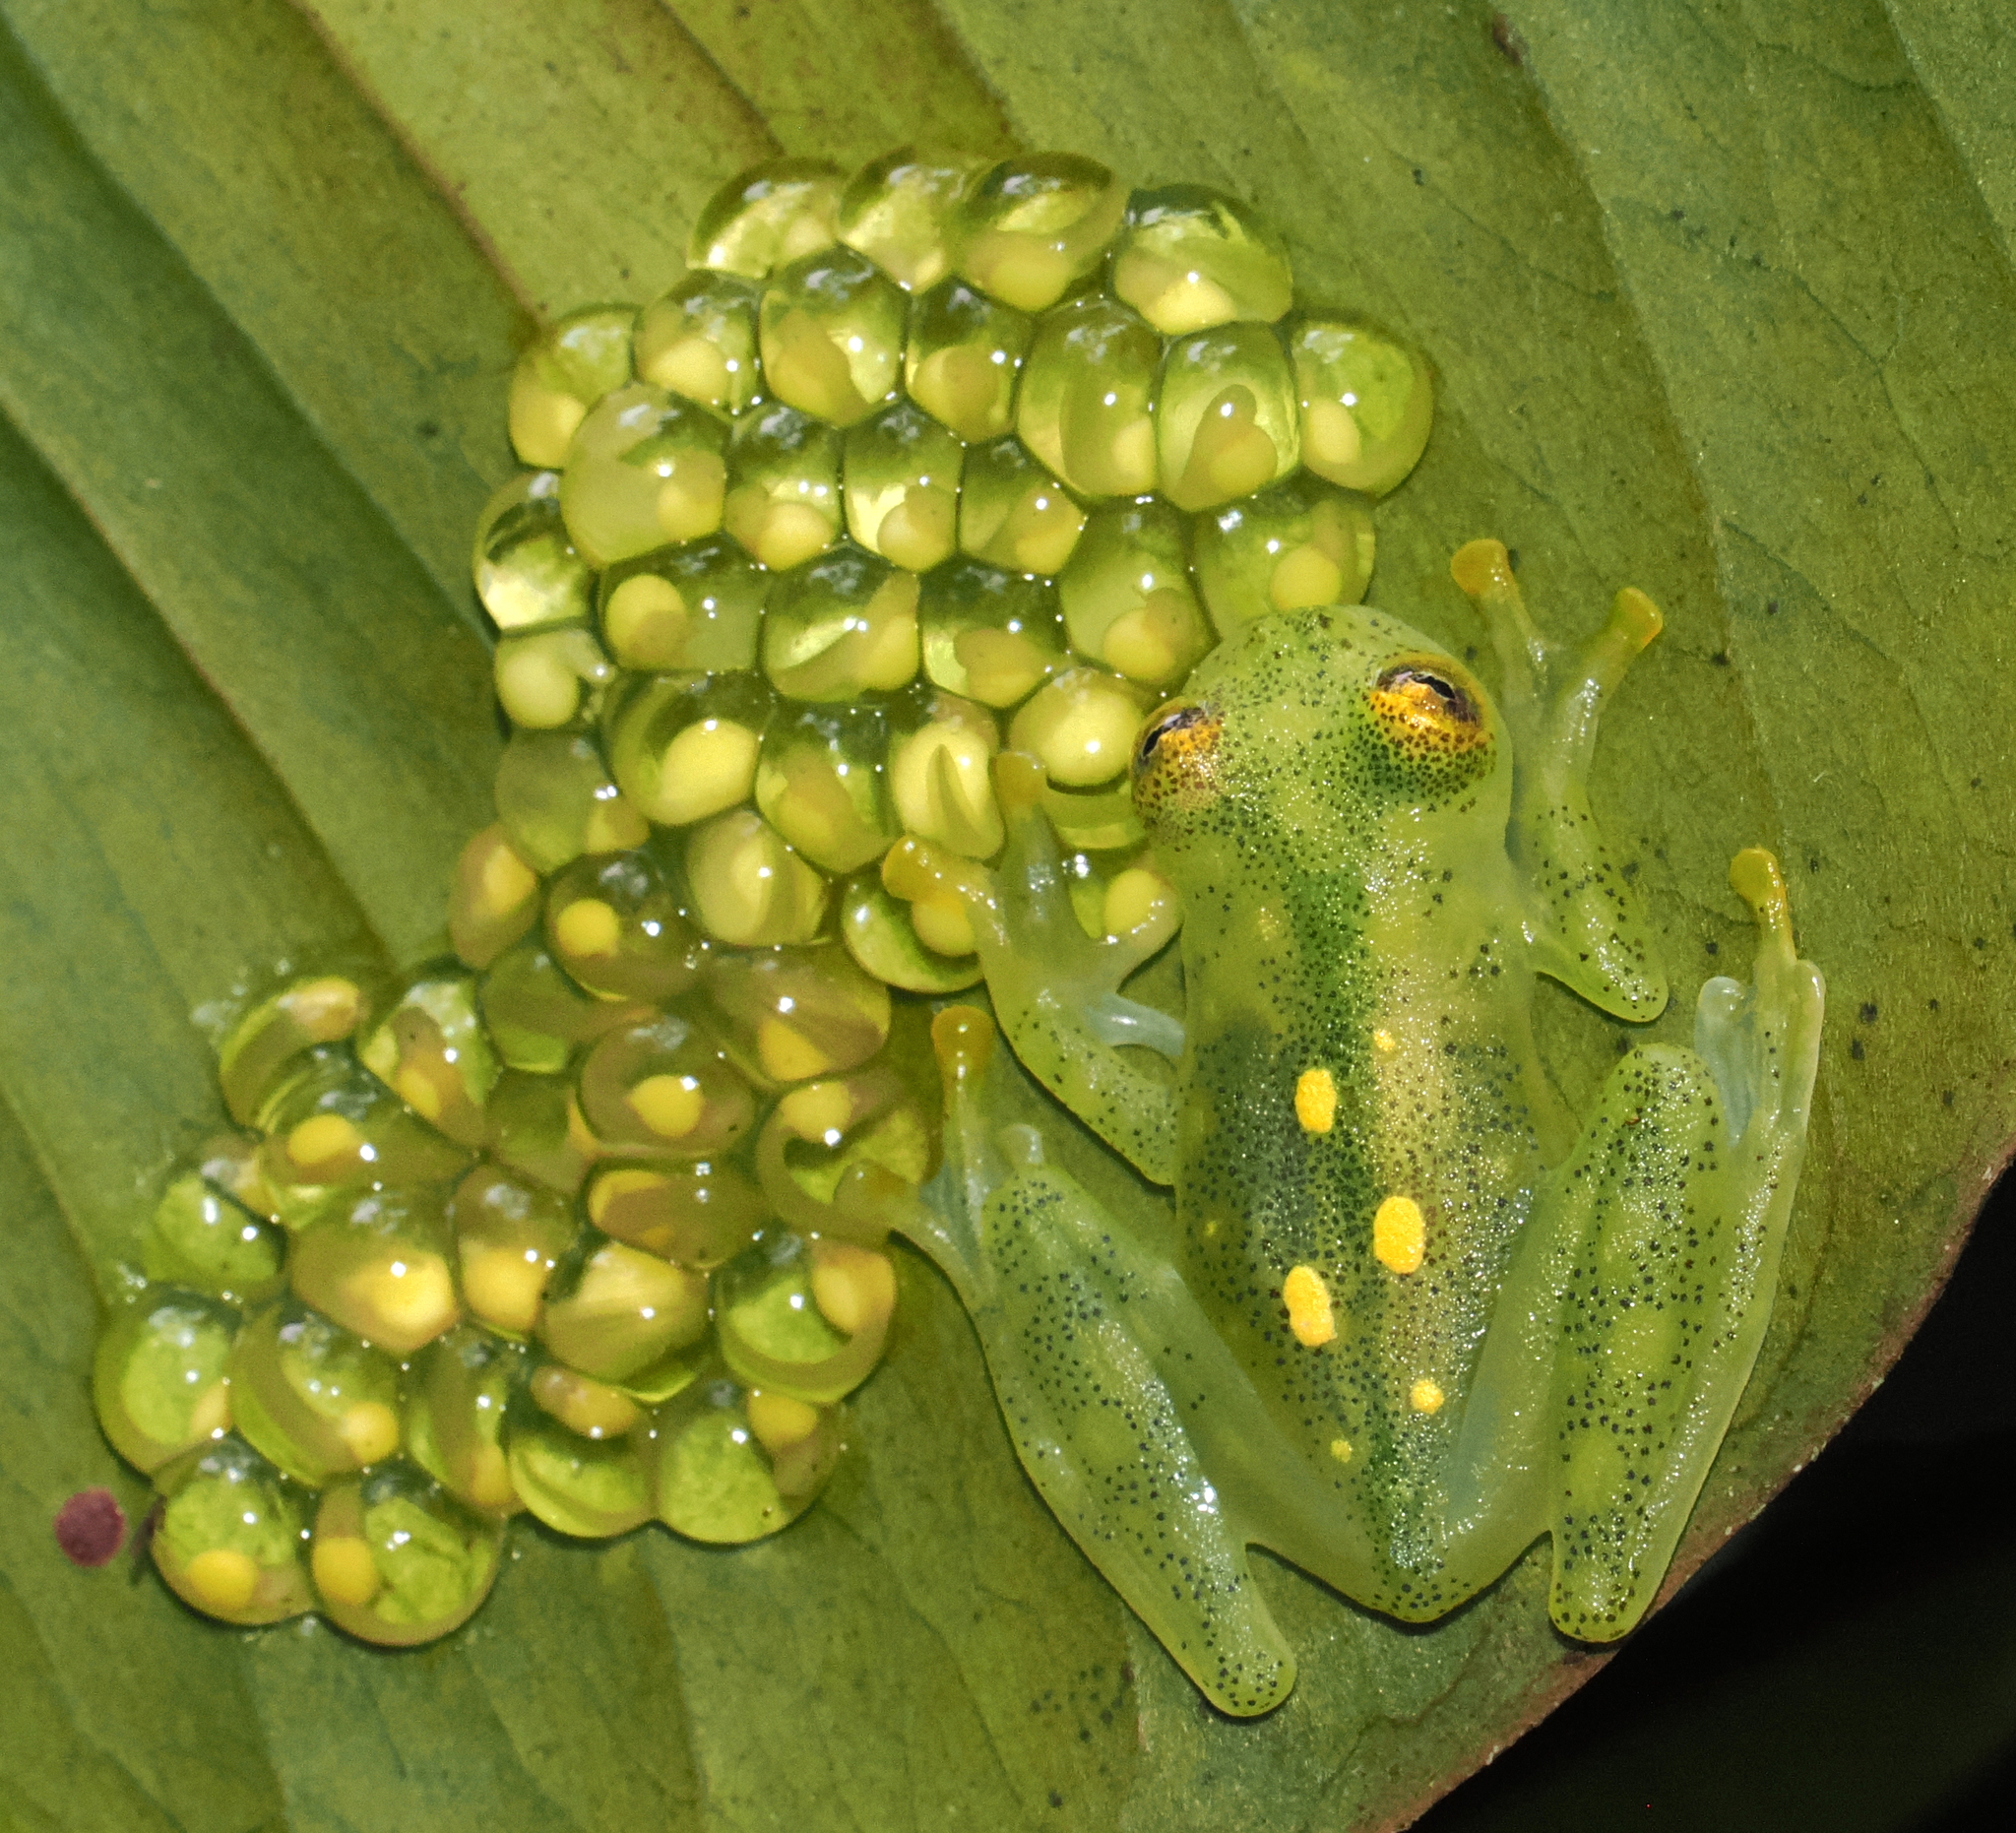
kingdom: Animalia
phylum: Chordata
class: Amphibia
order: Anura
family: Centrolenidae
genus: Hyalinobatrachium
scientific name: Hyalinobatrachium aureoguttatum
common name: Atrato glass frog
